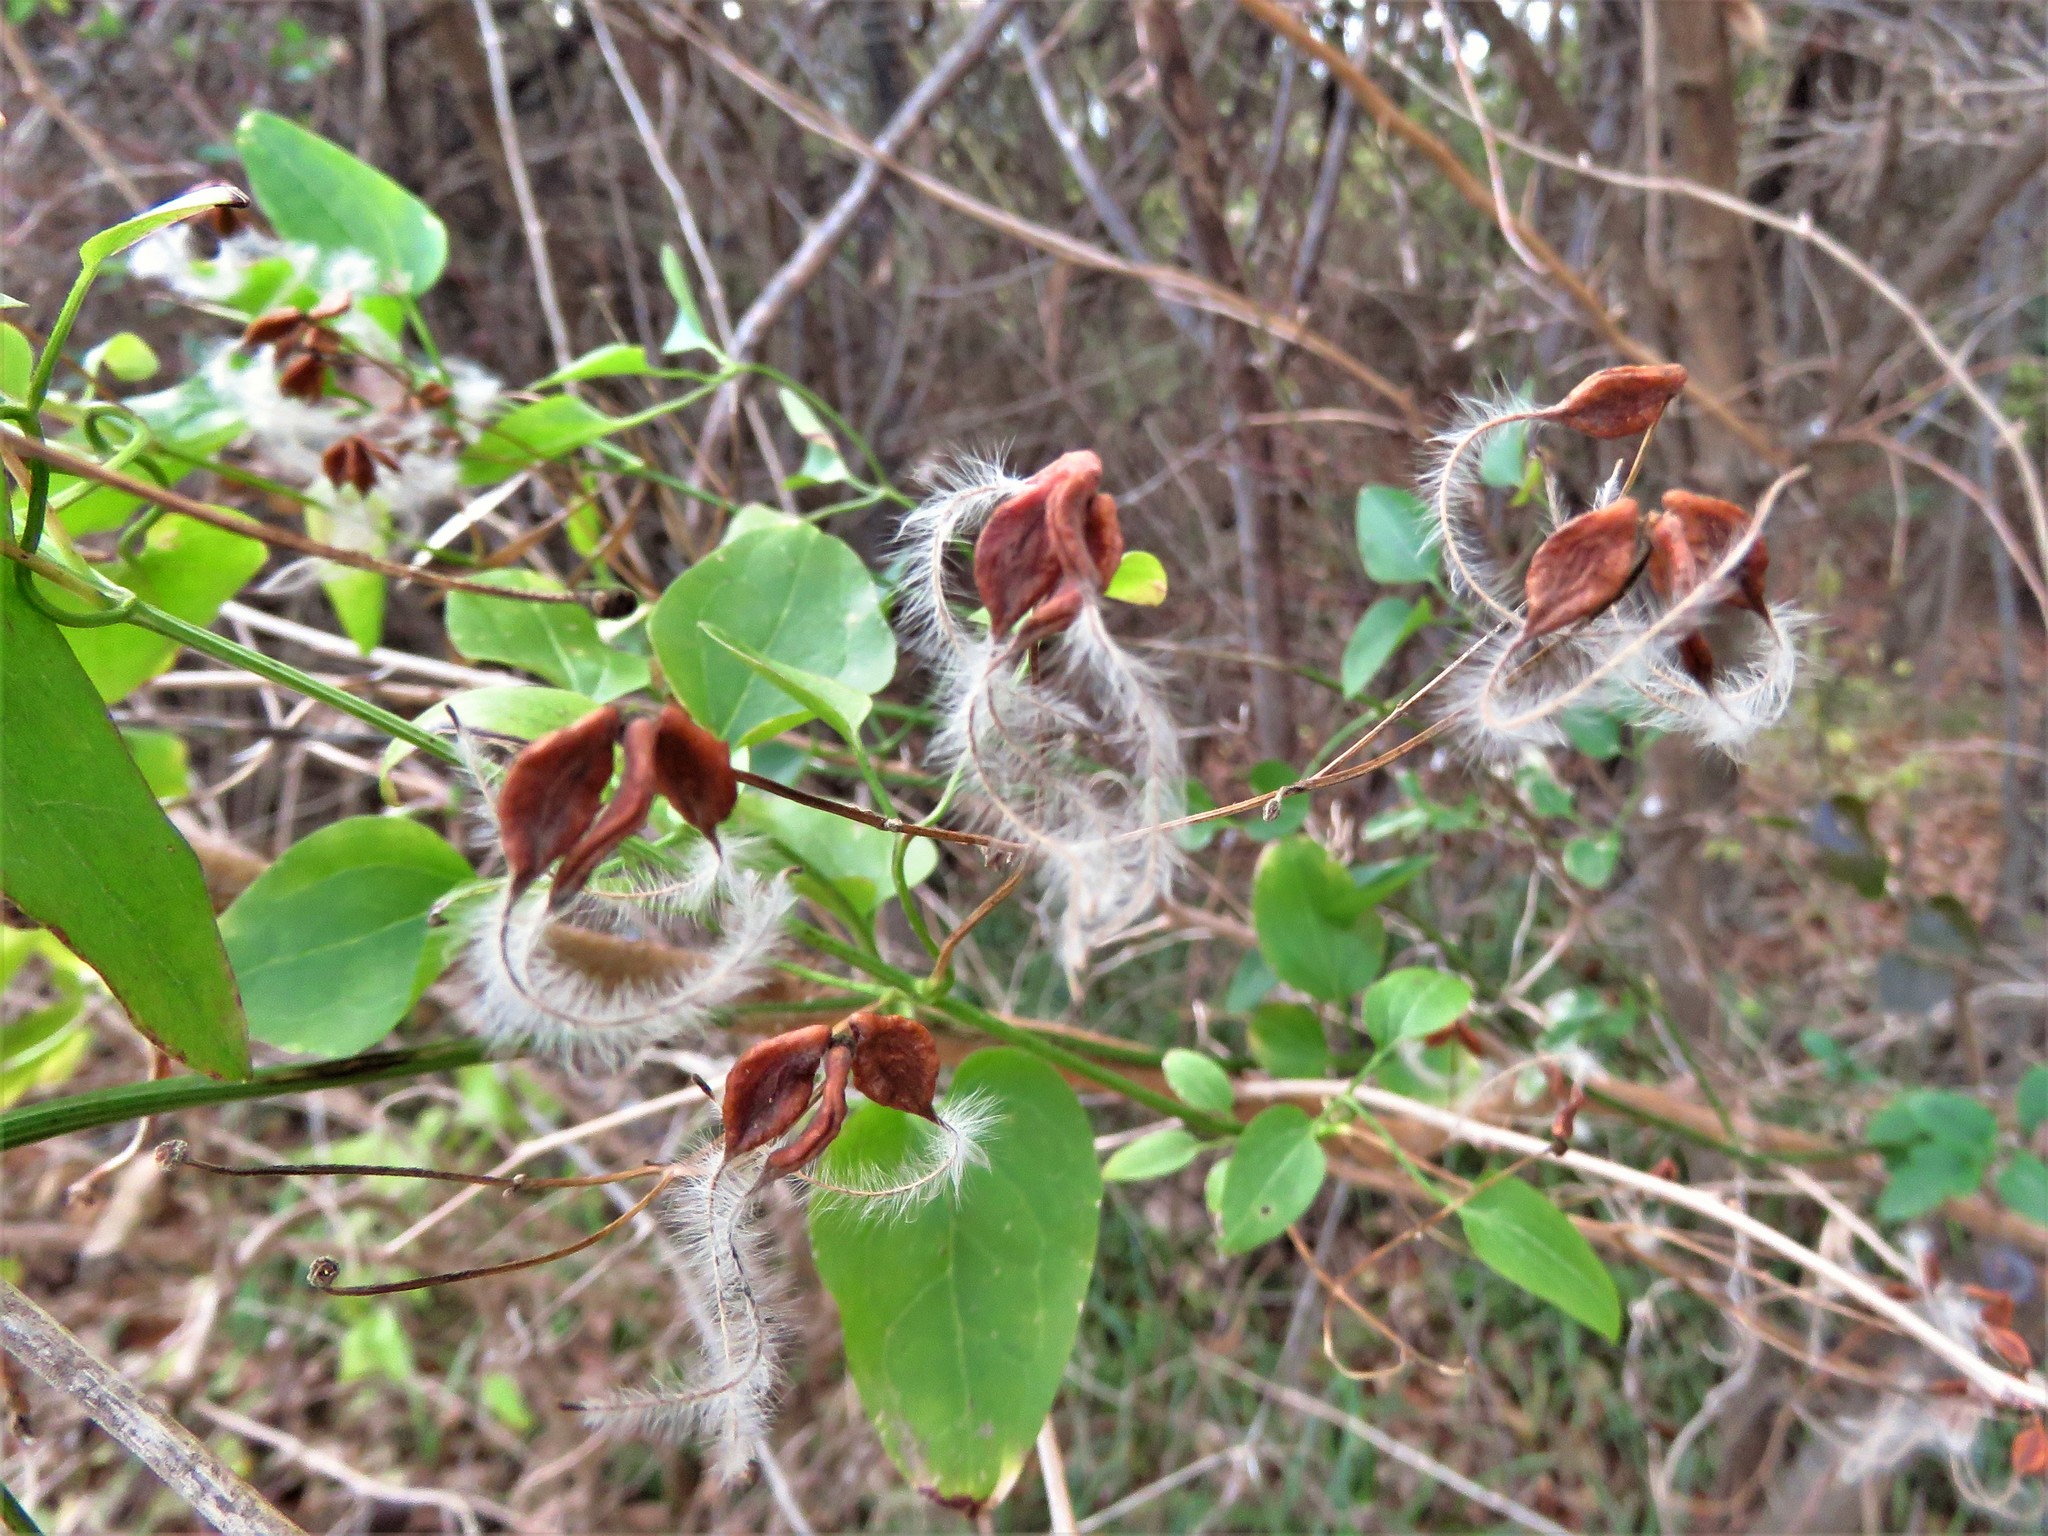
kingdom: Plantae
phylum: Tracheophyta
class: Magnoliopsida
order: Ranunculales
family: Ranunculaceae
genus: Clematis
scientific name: Clematis terniflora
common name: Sweet autumn clematis
